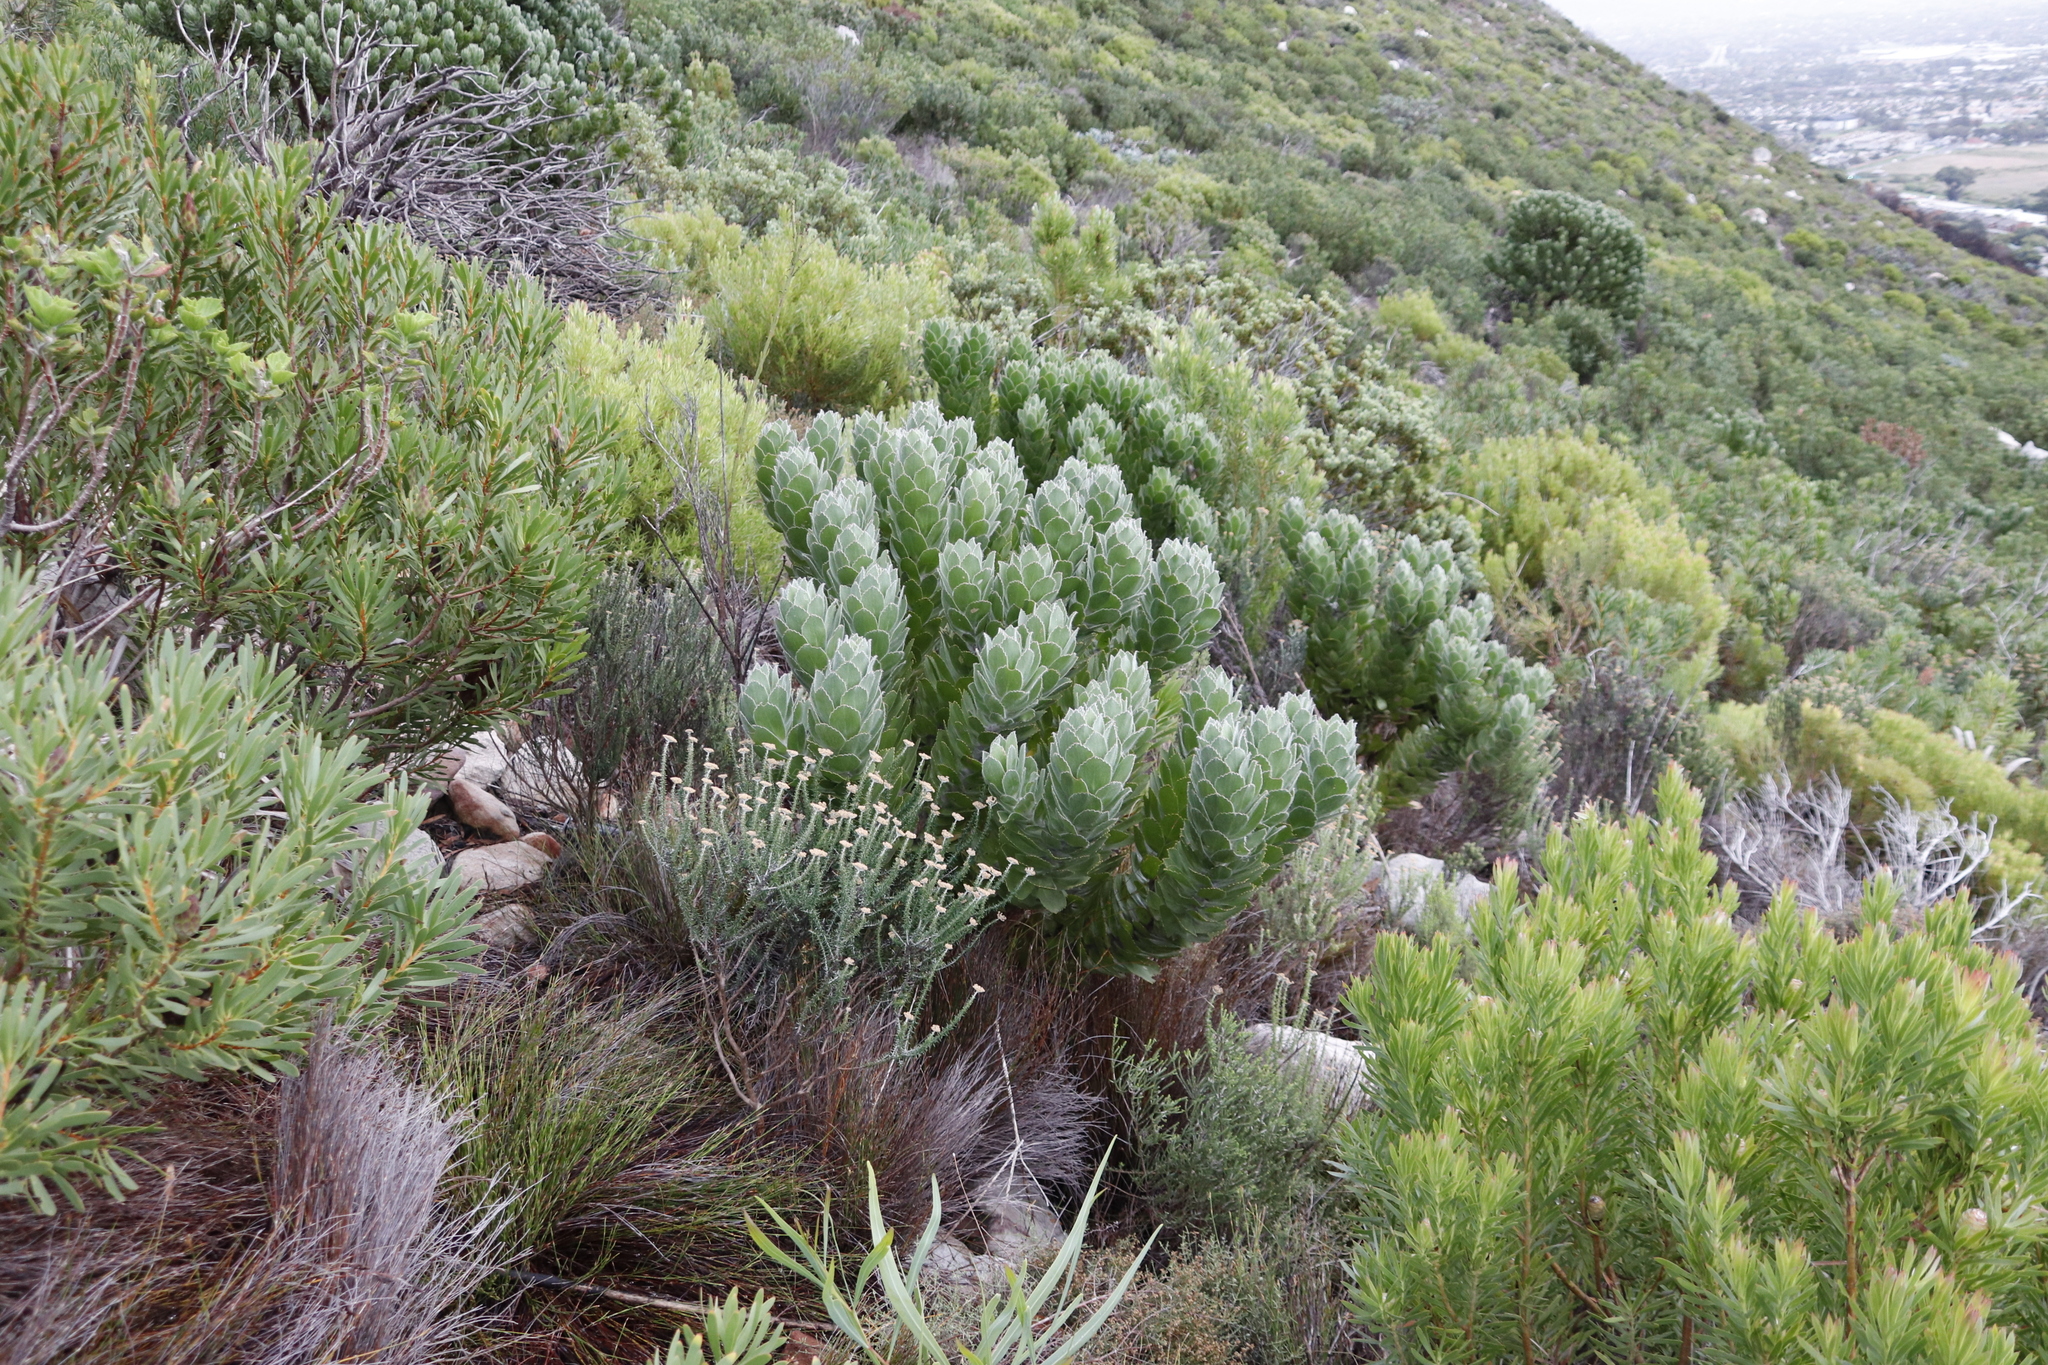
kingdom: Plantae
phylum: Tracheophyta
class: Magnoliopsida
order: Proteales
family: Proteaceae
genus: Leucospermum
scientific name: Leucospermum conocarpodendron
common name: Tree pincushion
